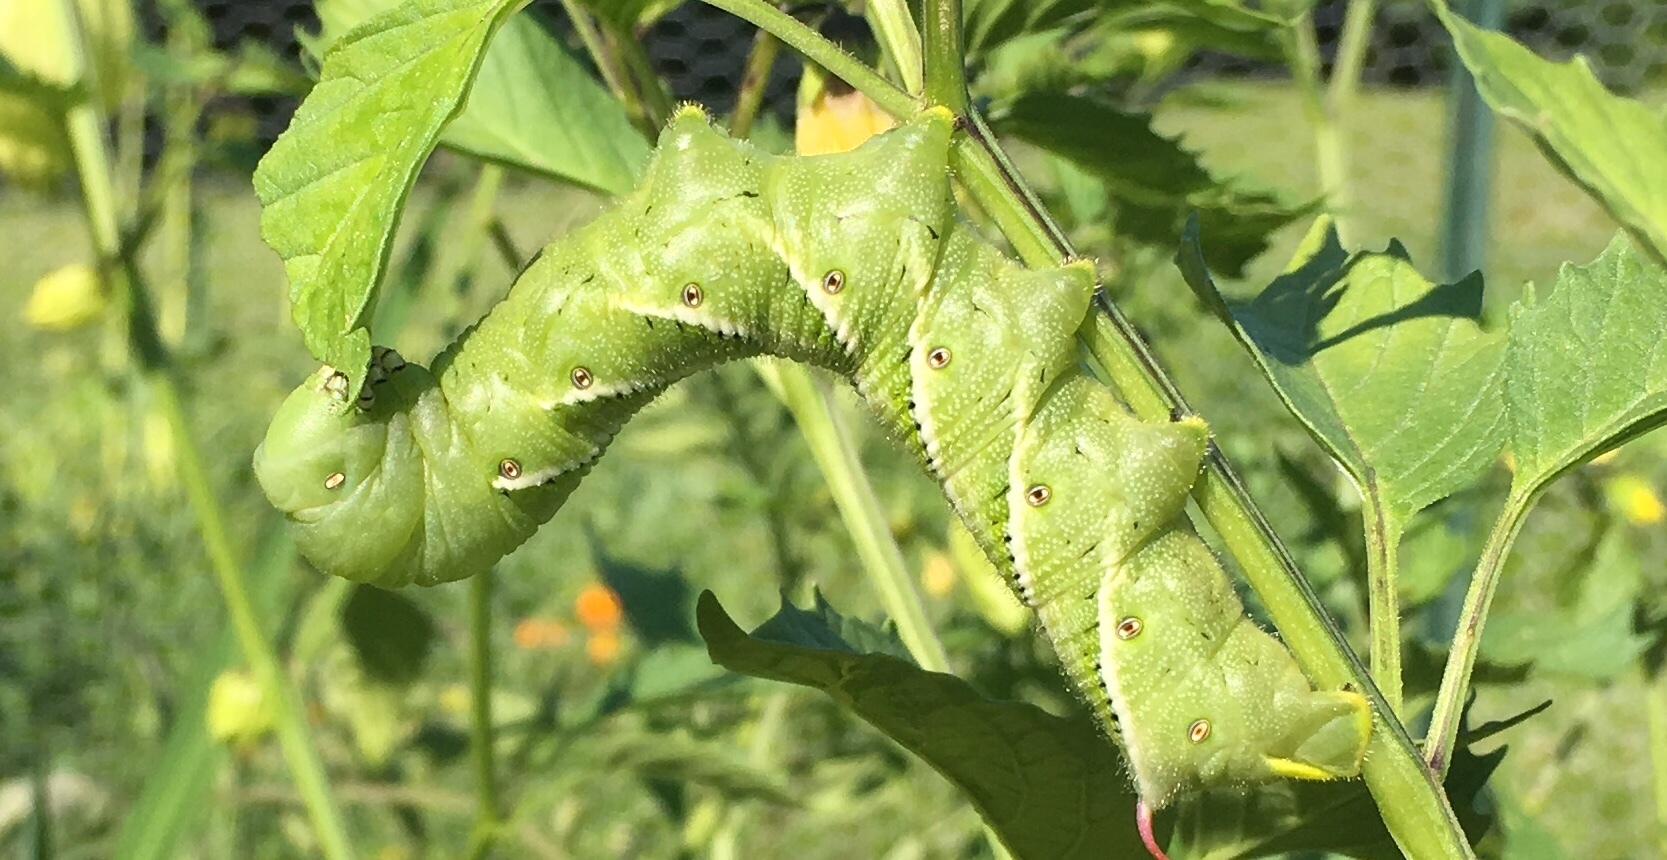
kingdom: Animalia
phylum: Arthropoda
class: Insecta
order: Lepidoptera
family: Sphingidae
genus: Manduca
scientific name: Manduca sexta
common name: Carolina sphinx
